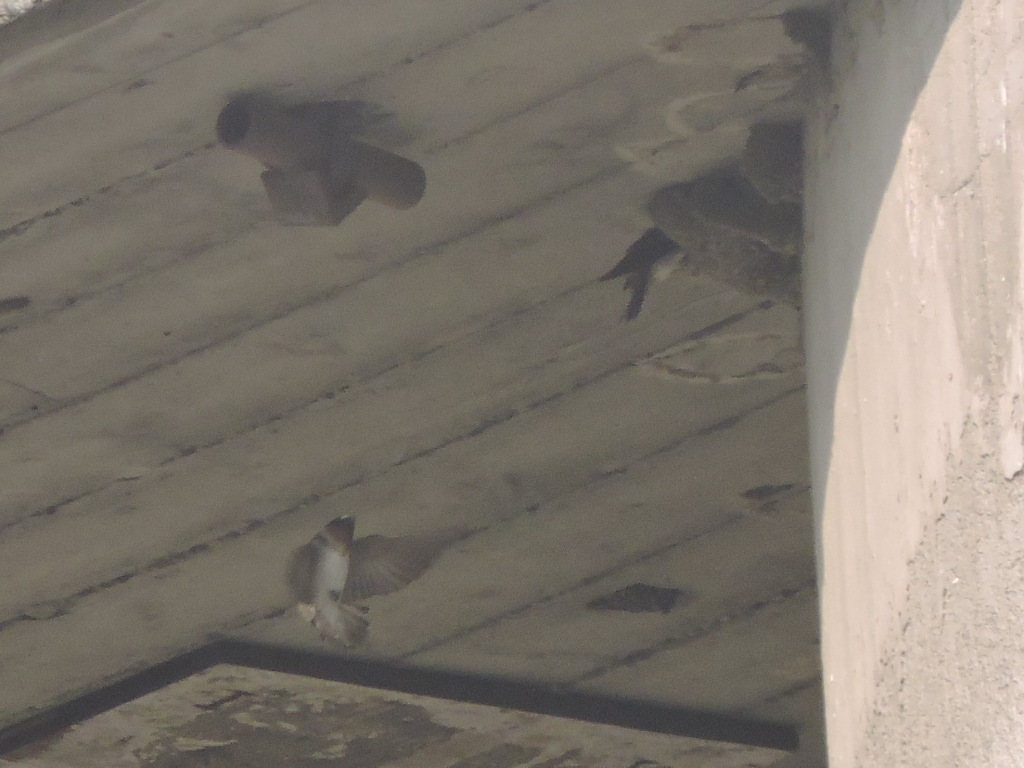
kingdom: Animalia
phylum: Chordata
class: Aves
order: Passeriformes
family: Hirundinidae
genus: Petrochelidon
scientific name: Petrochelidon pyrrhonota
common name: American cliff swallow
